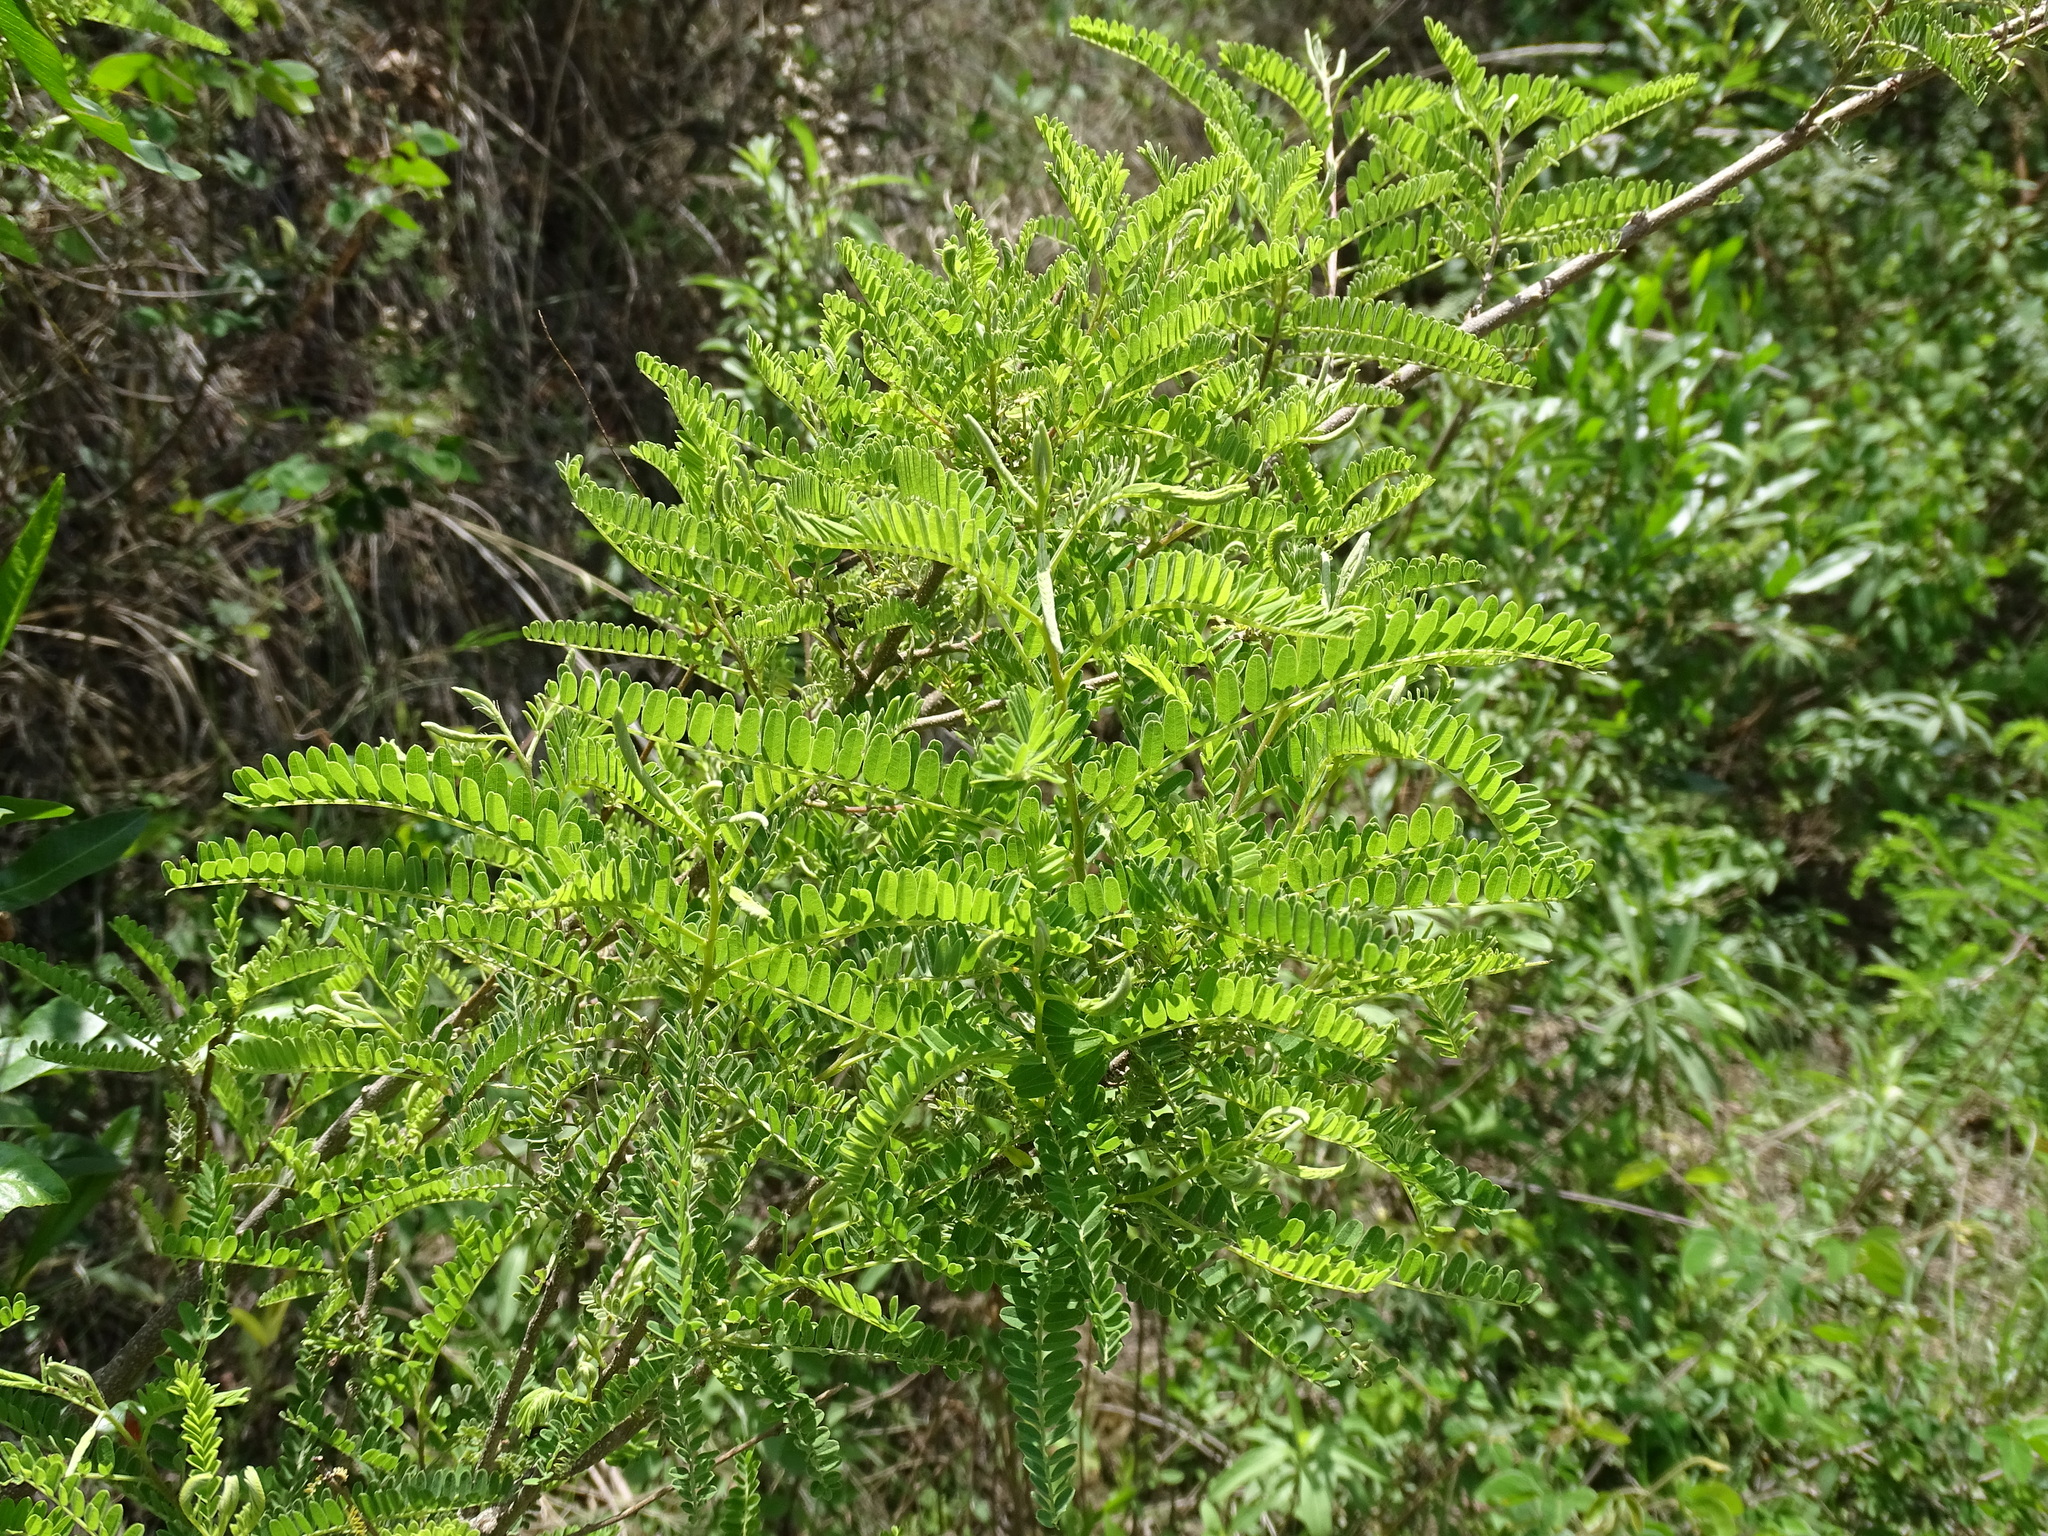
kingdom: Plantae
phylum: Tracheophyta
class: Magnoliopsida
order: Fabales
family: Fabaceae
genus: Eysenhardtia
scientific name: Eysenhardtia polystachya
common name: Kidneywood
